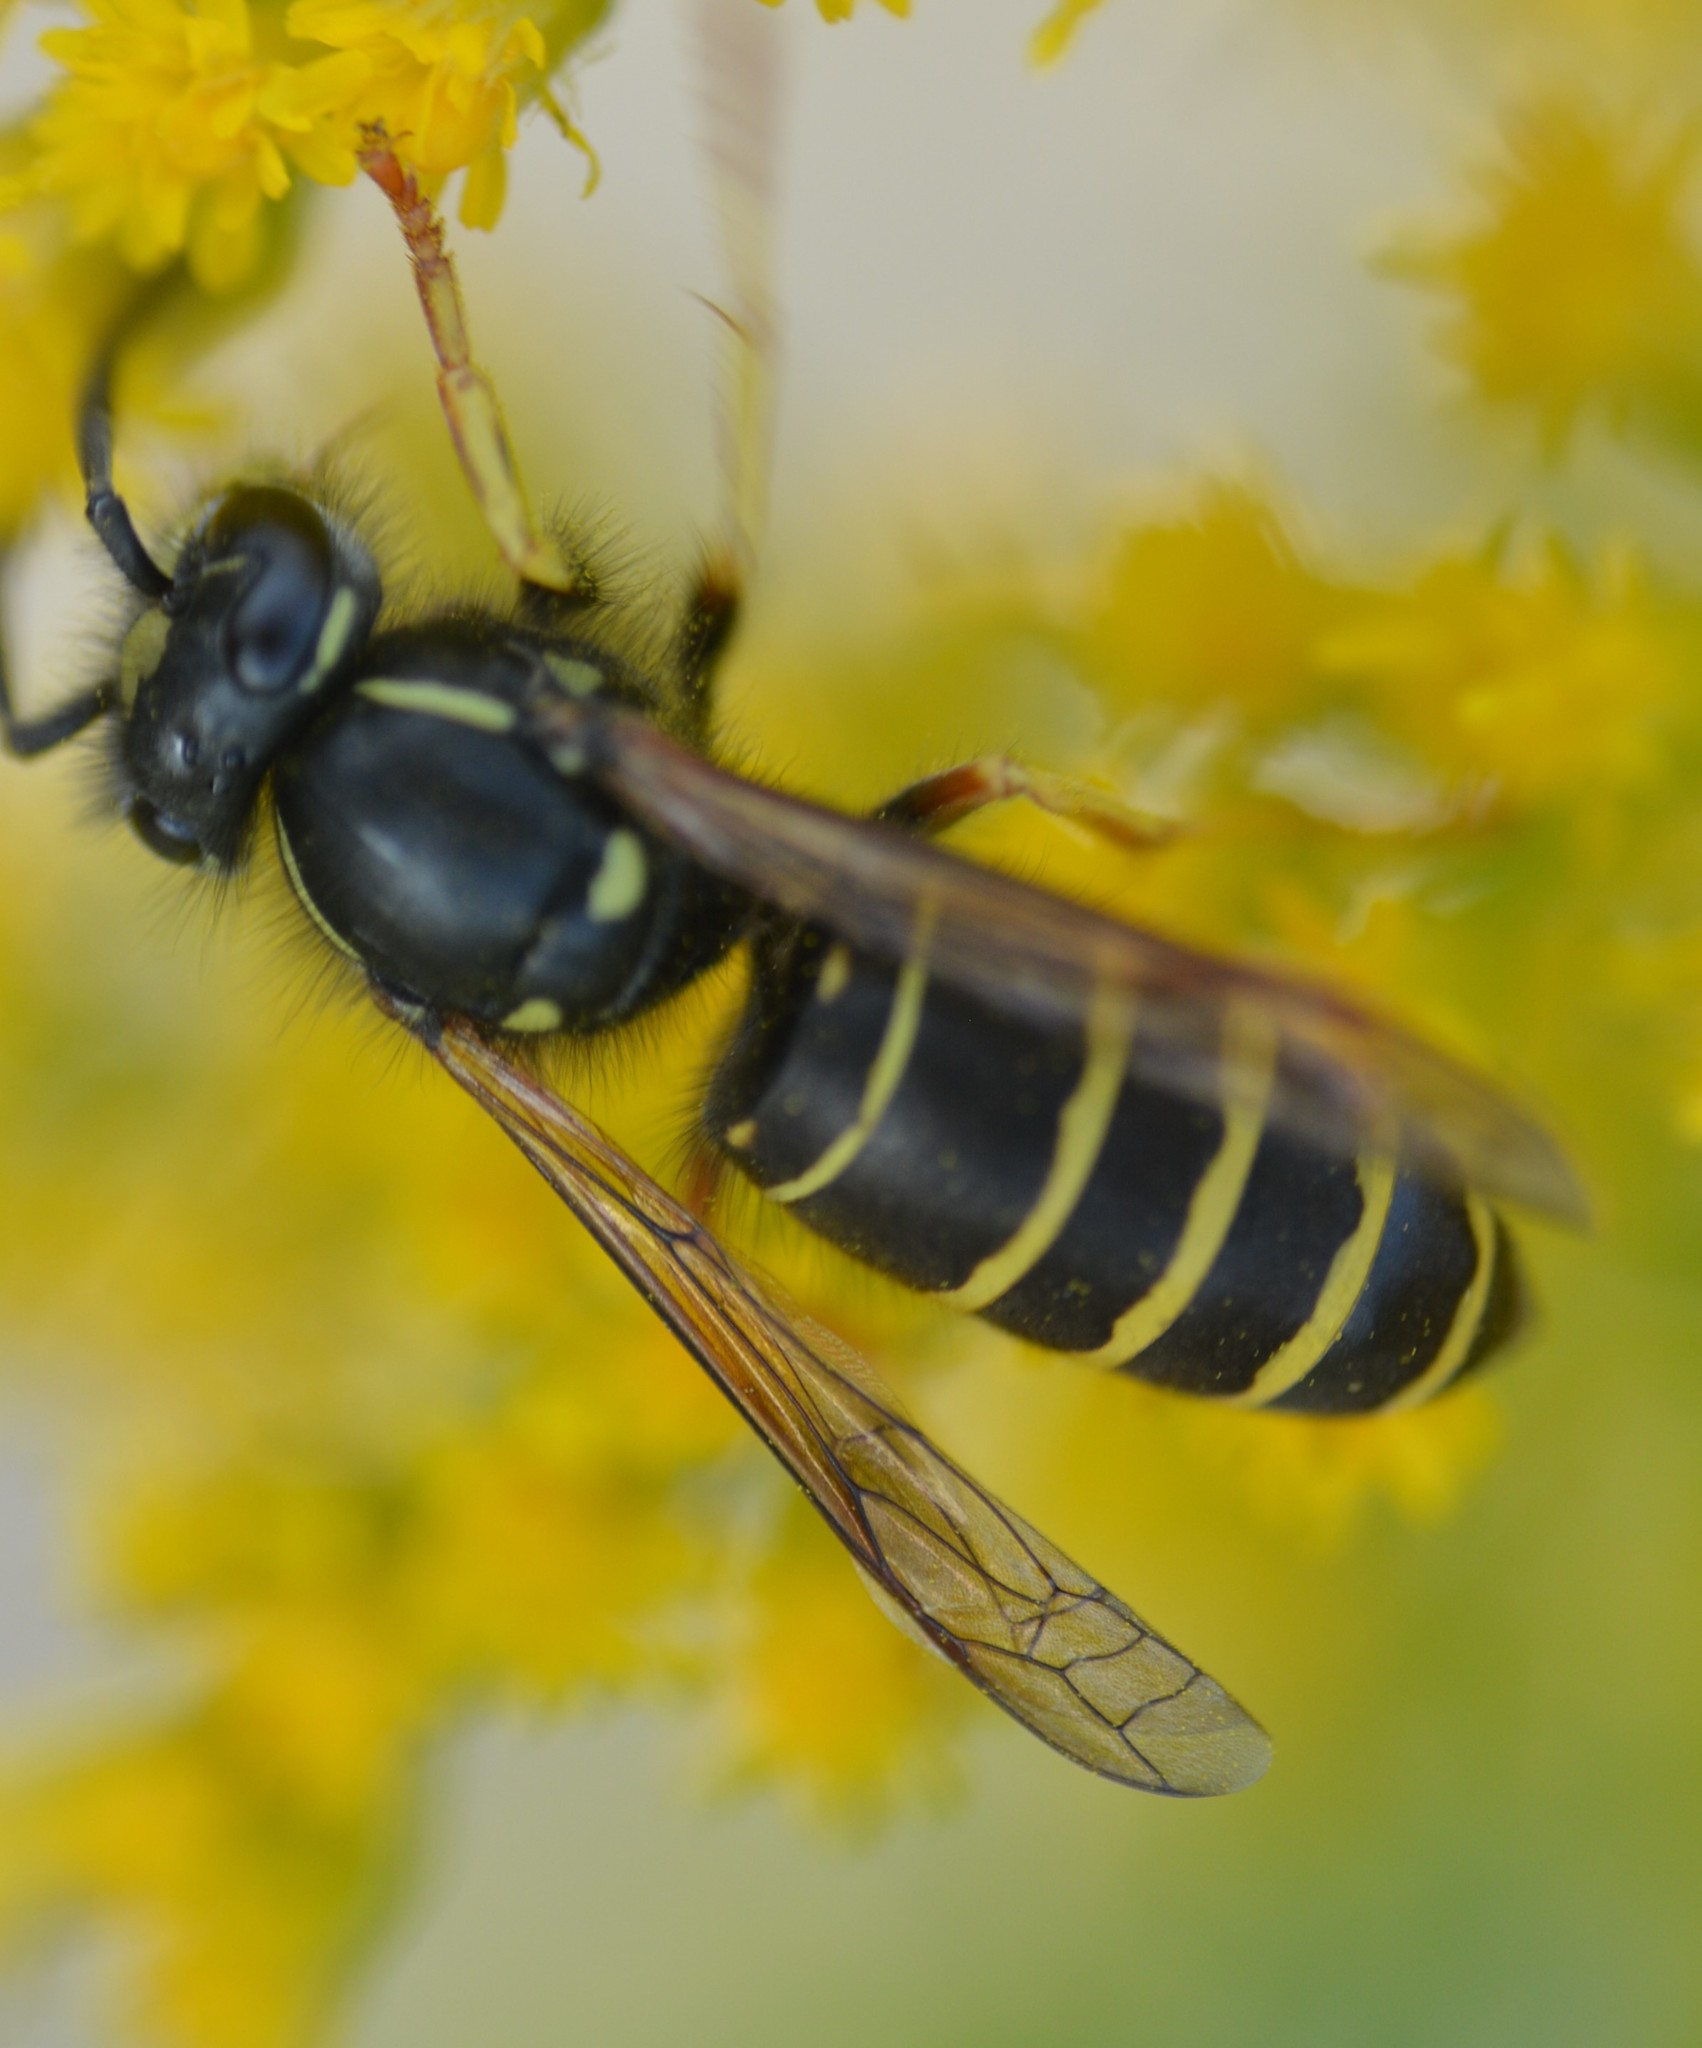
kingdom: Animalia
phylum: Arthropoda
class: Insecta
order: Hymenoptera
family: Vespidae
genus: Vespula
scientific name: Vespula acadica
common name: Forest yellowjacket
